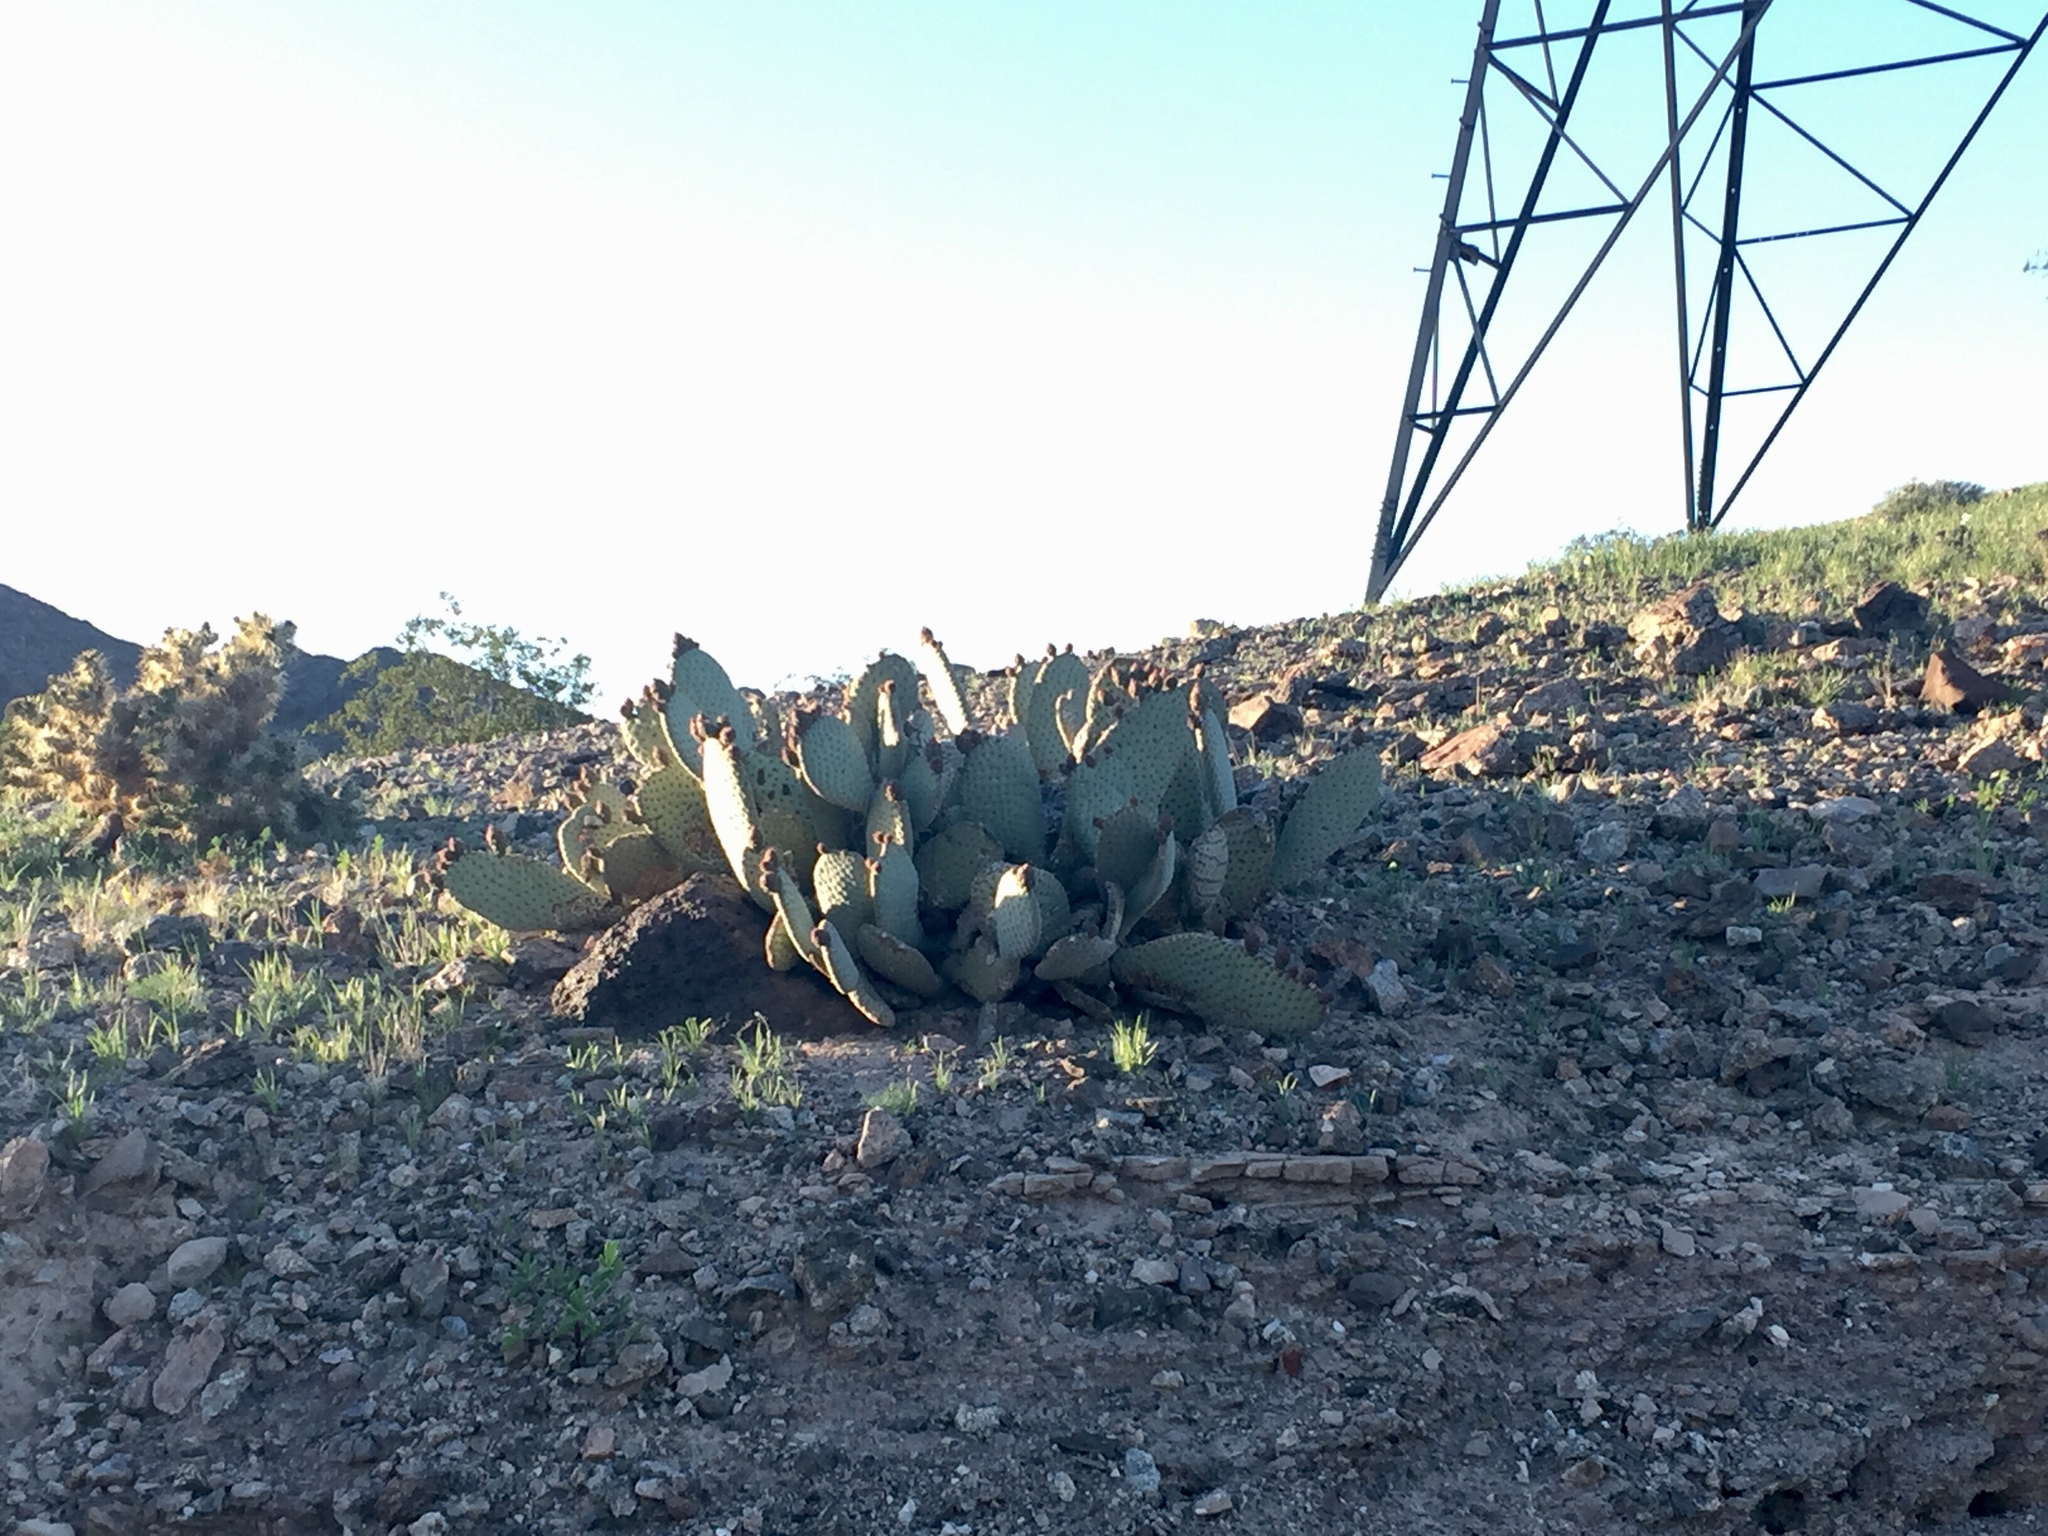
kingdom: Plantae
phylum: Tracheophyta
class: Magnoliopsida
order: Caryophyllales
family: Cactaceae
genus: Opuntia
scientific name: Opuntia basilaris
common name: Beavertail prickly-pear
